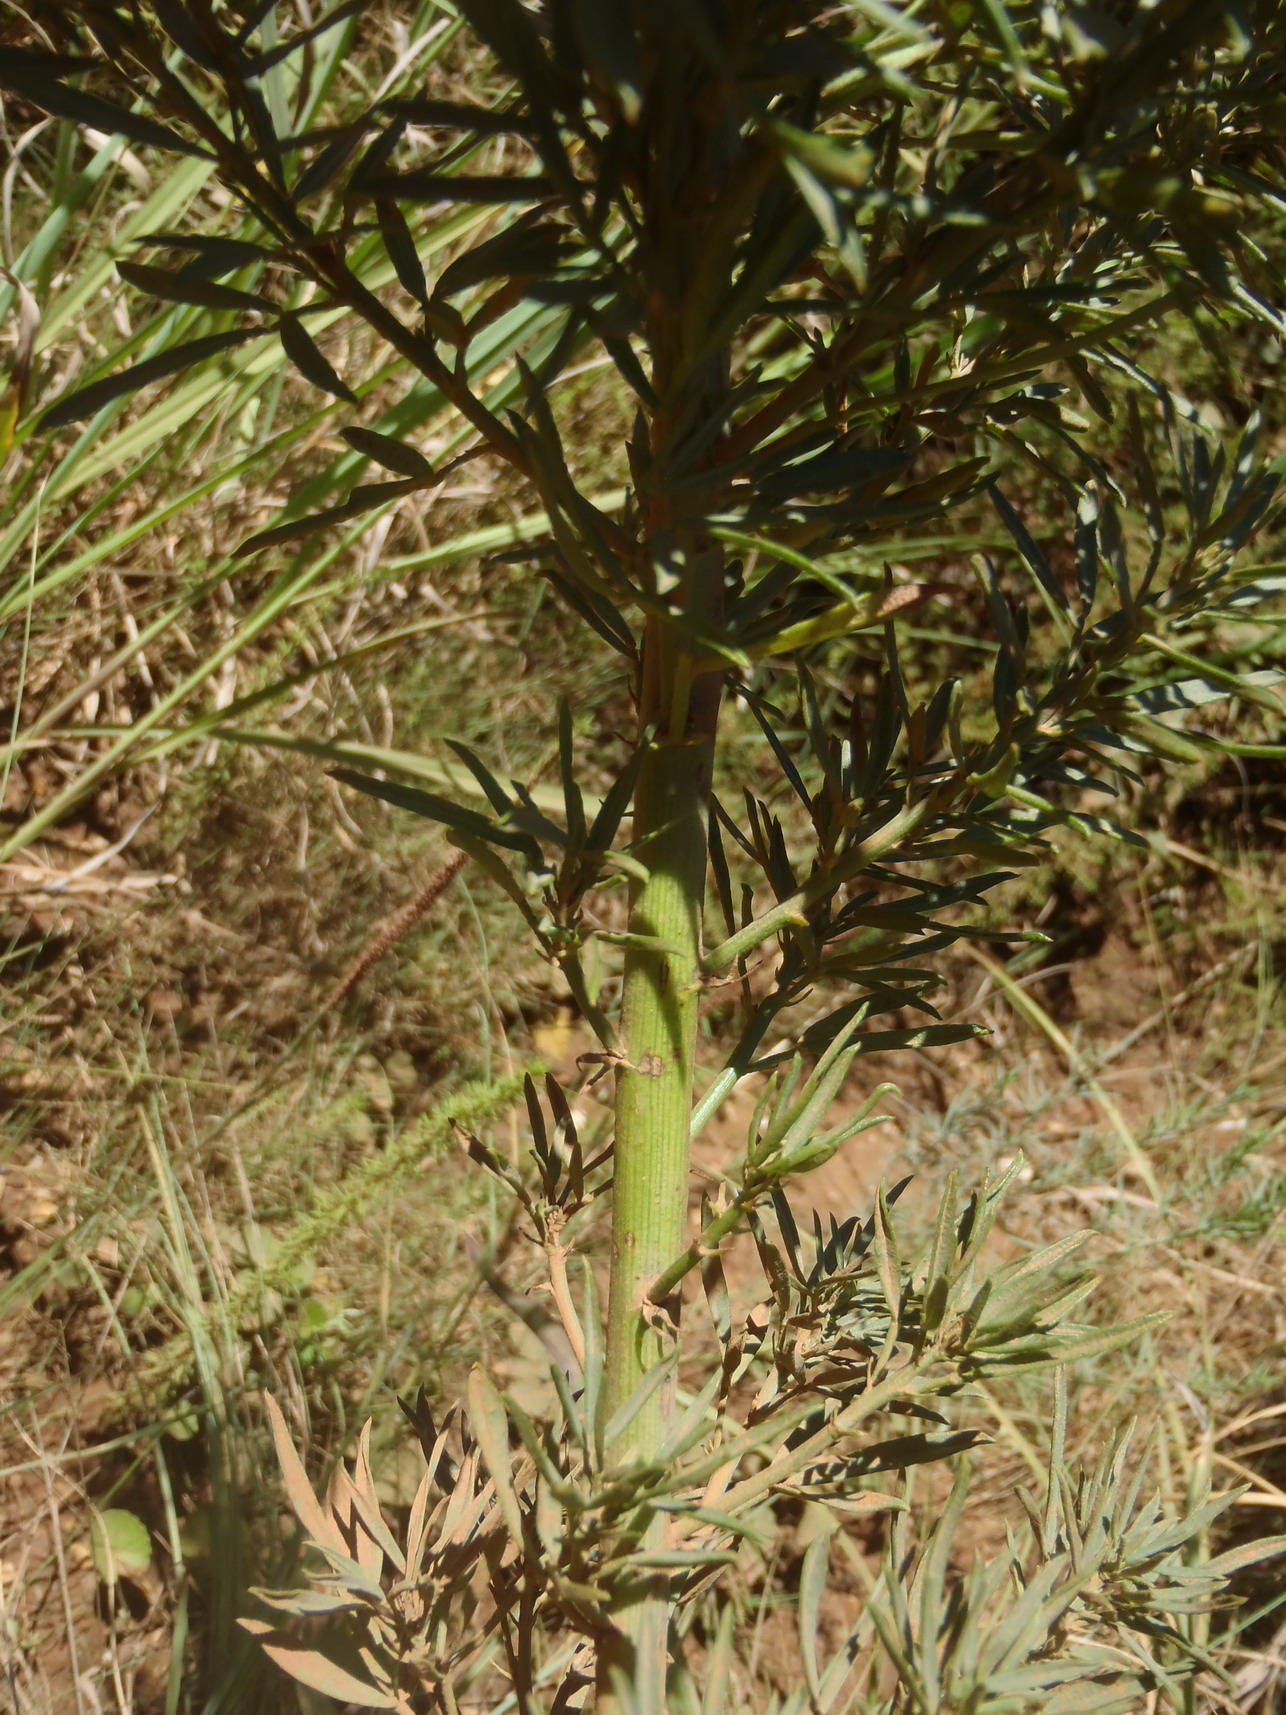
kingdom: Plantae
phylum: Tracheophyta
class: Magnoliopsida
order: Fabales
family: Fabaceae
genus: Psoralea
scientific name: Psoralea axillaris
